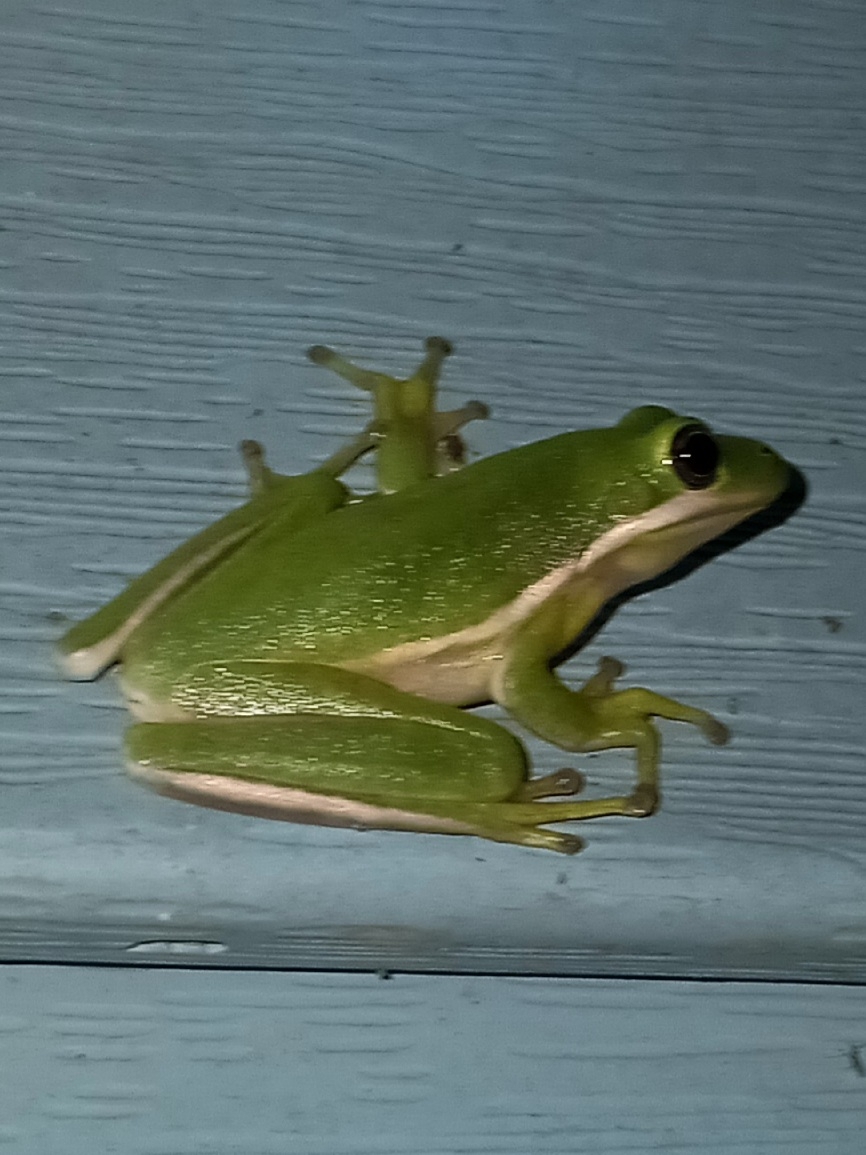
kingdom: Animalia
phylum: Chordata
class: Amphibia
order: Anura
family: Hylidae
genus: Dryophytes
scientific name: Dryophytes cinereus
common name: Green treefrog
